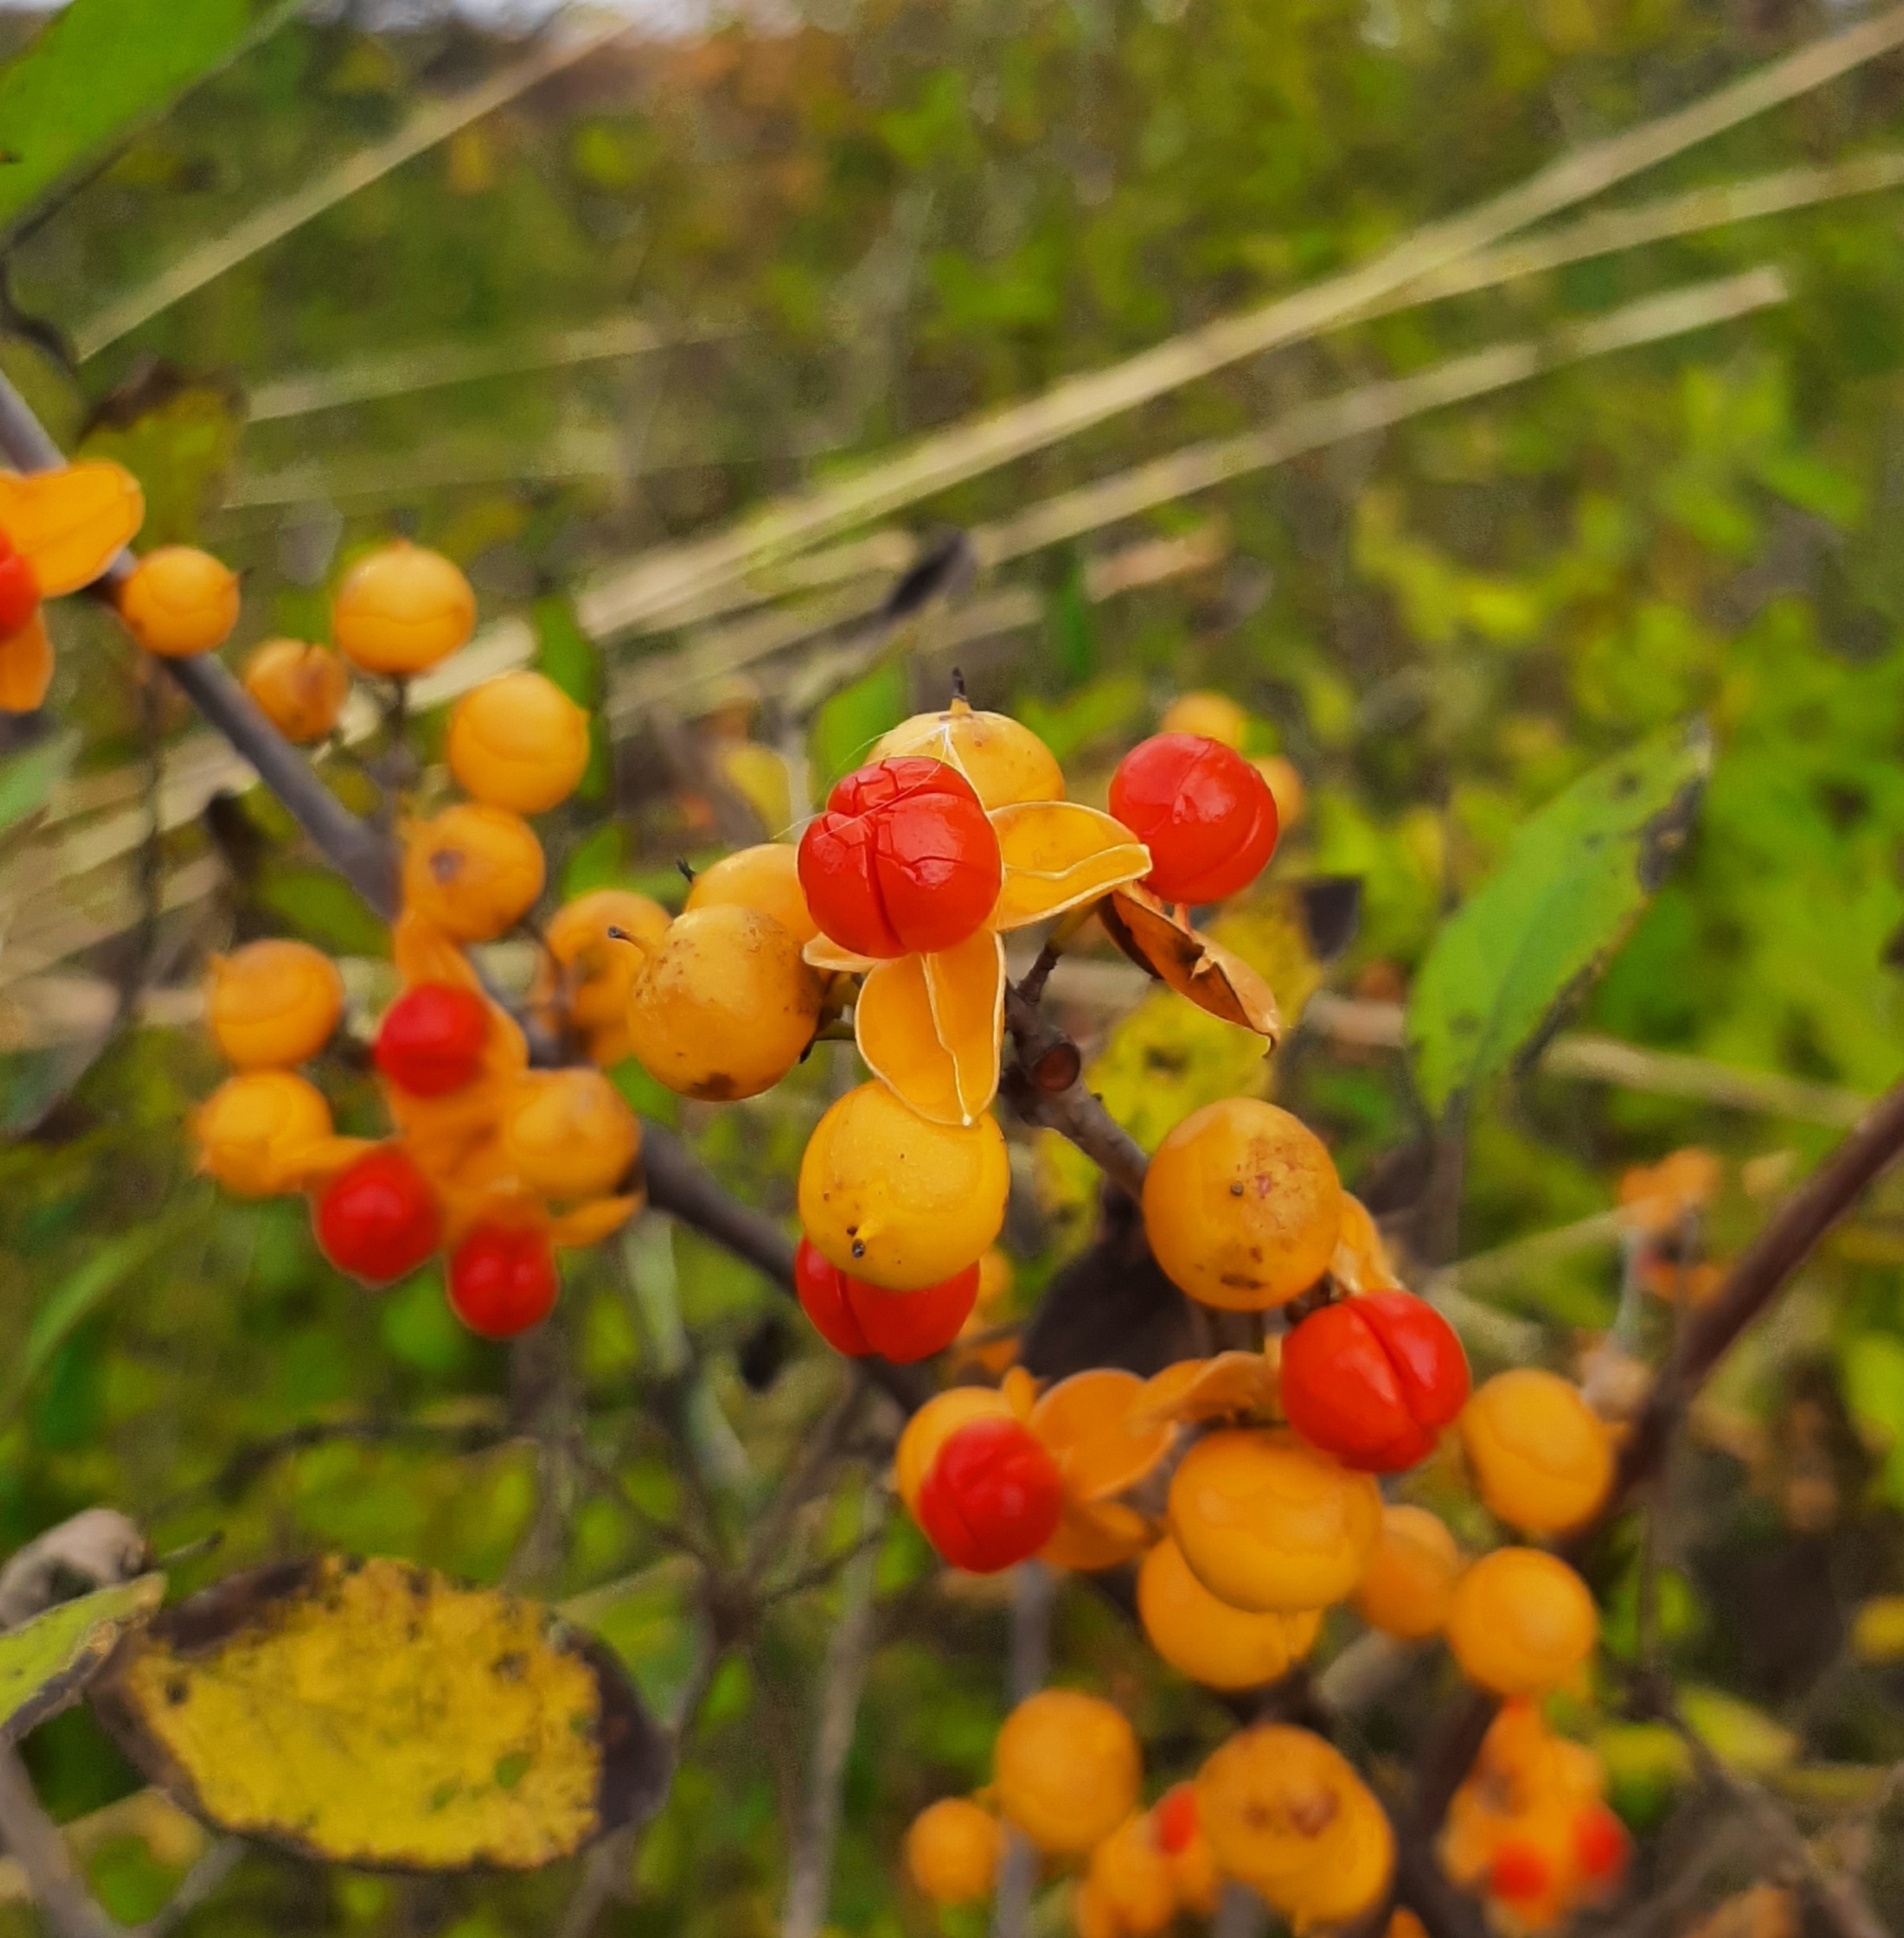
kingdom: Plantae
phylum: Tracheophyta
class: Magnoliopsida
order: Celastrales
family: Celastraceae
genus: Celastrus
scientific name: Celastrus orbiculatus
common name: Oriental bittersweet
